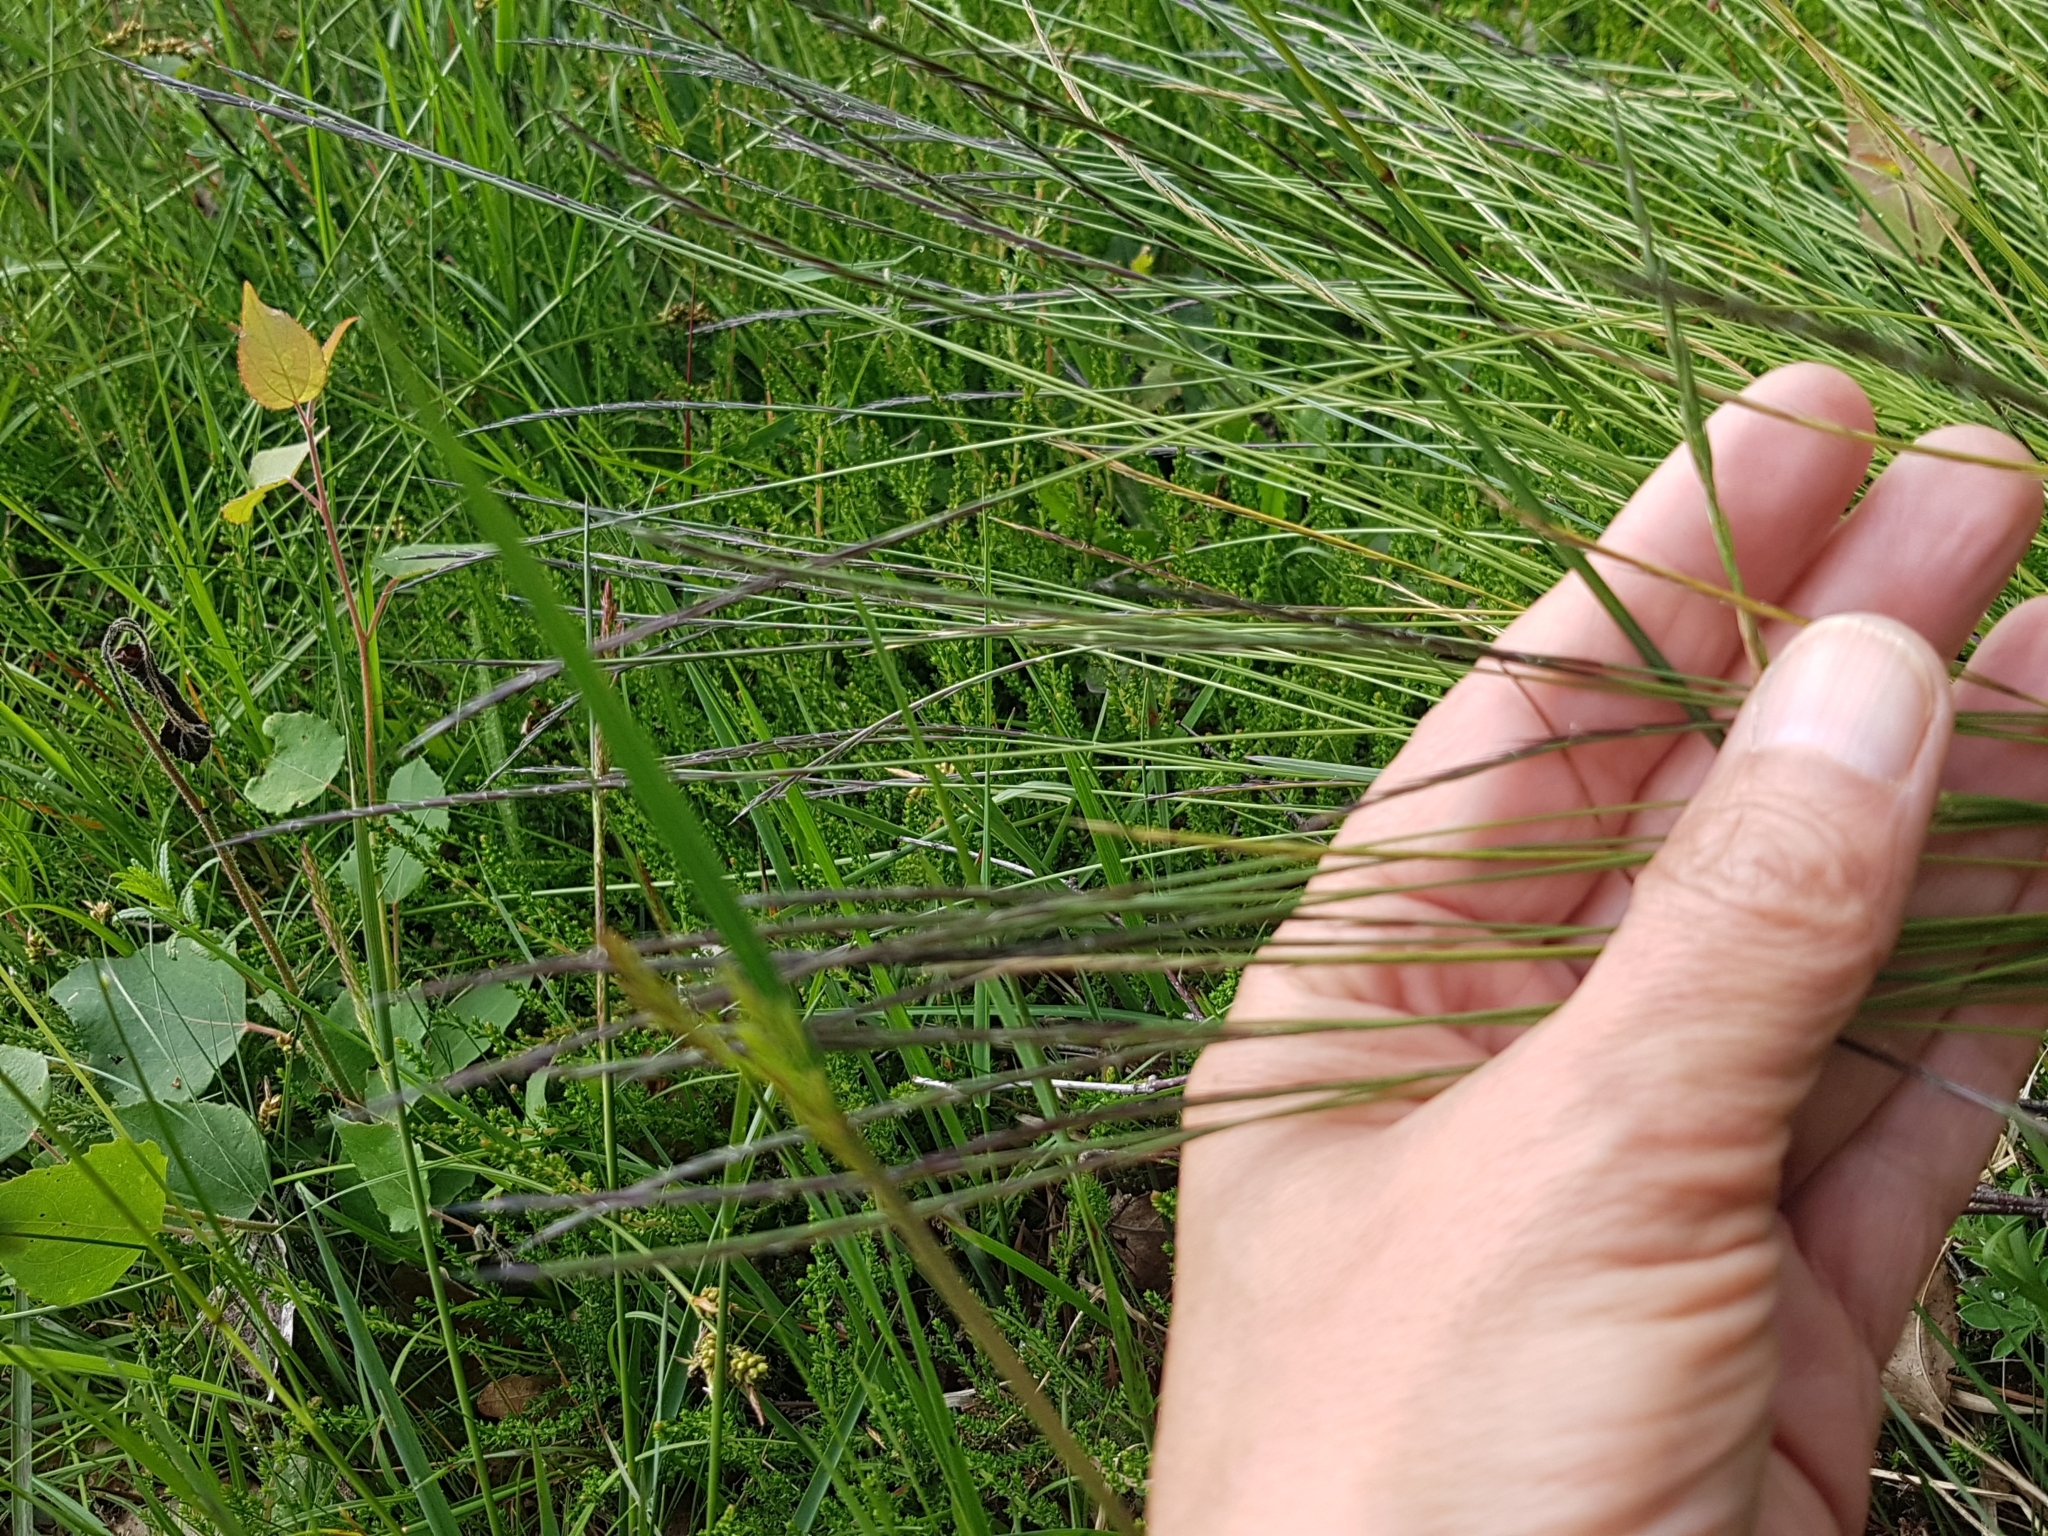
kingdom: Plantae
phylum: Tracheophyta
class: Liliopsida
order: Poales
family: Poaceae
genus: Nardus
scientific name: Nardus stricta
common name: Mat-grass
